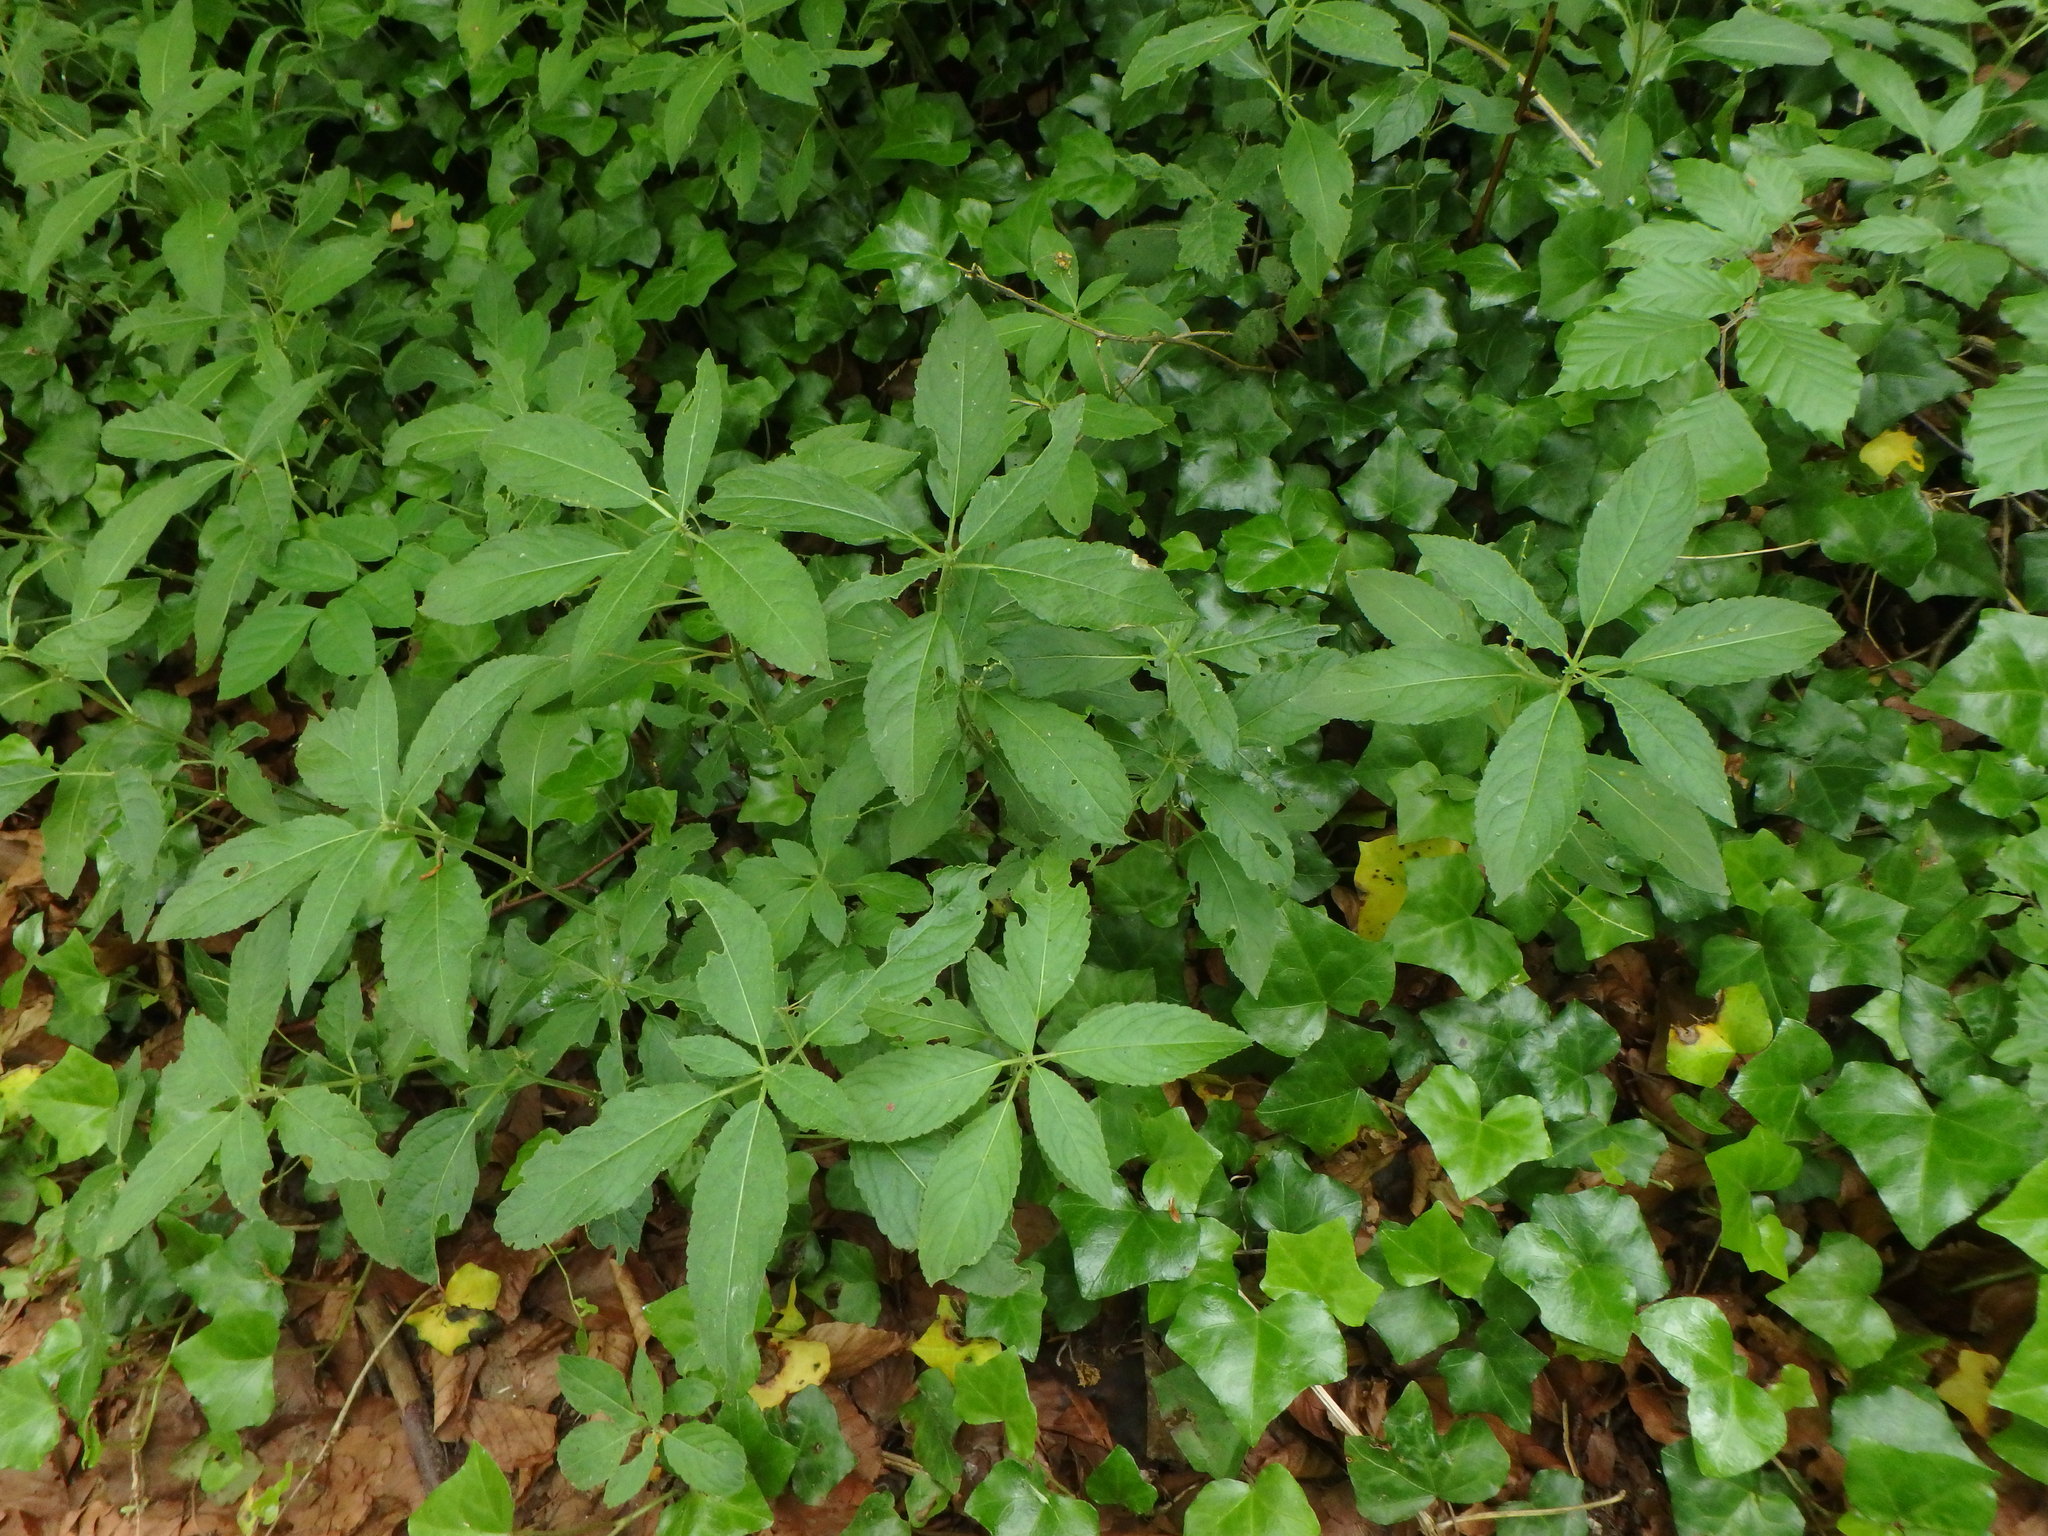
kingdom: Plantae
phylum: Tracheophyta
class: Magnoliopsida
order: Malpighiales
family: Euphorbiaceae
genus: Mercurialis
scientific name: Mercurialis perennis
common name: Dog mercury
